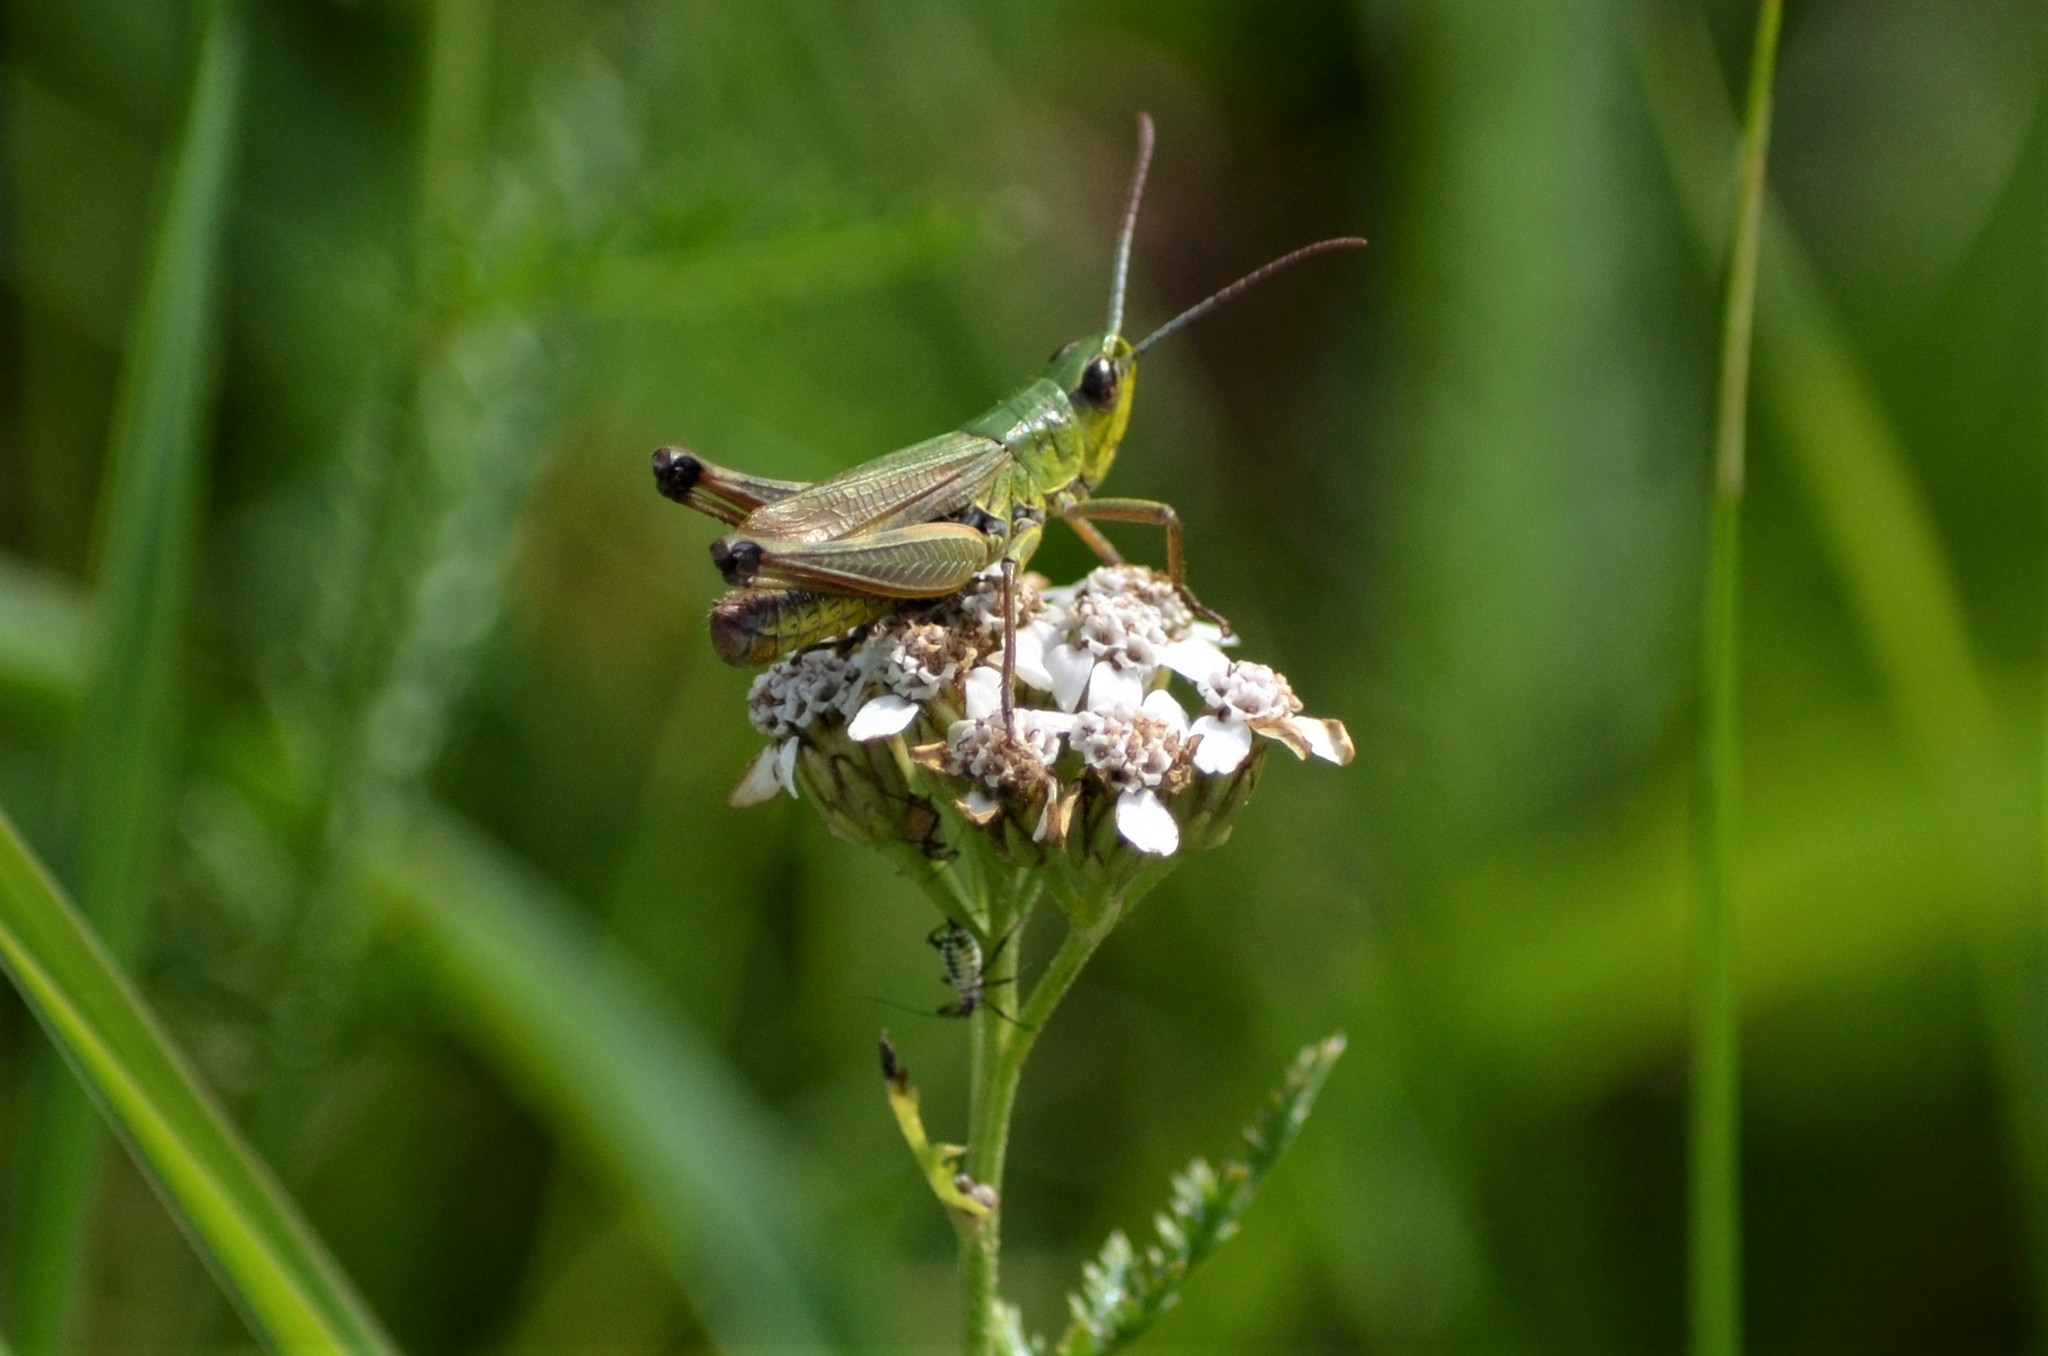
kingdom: Animalia
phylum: Arthropoda
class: Insecta
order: Orthoptera
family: Acrididae
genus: Pseudochorthippus
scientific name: Pseudochorthippus parallelus
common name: Meadow grasshopper
